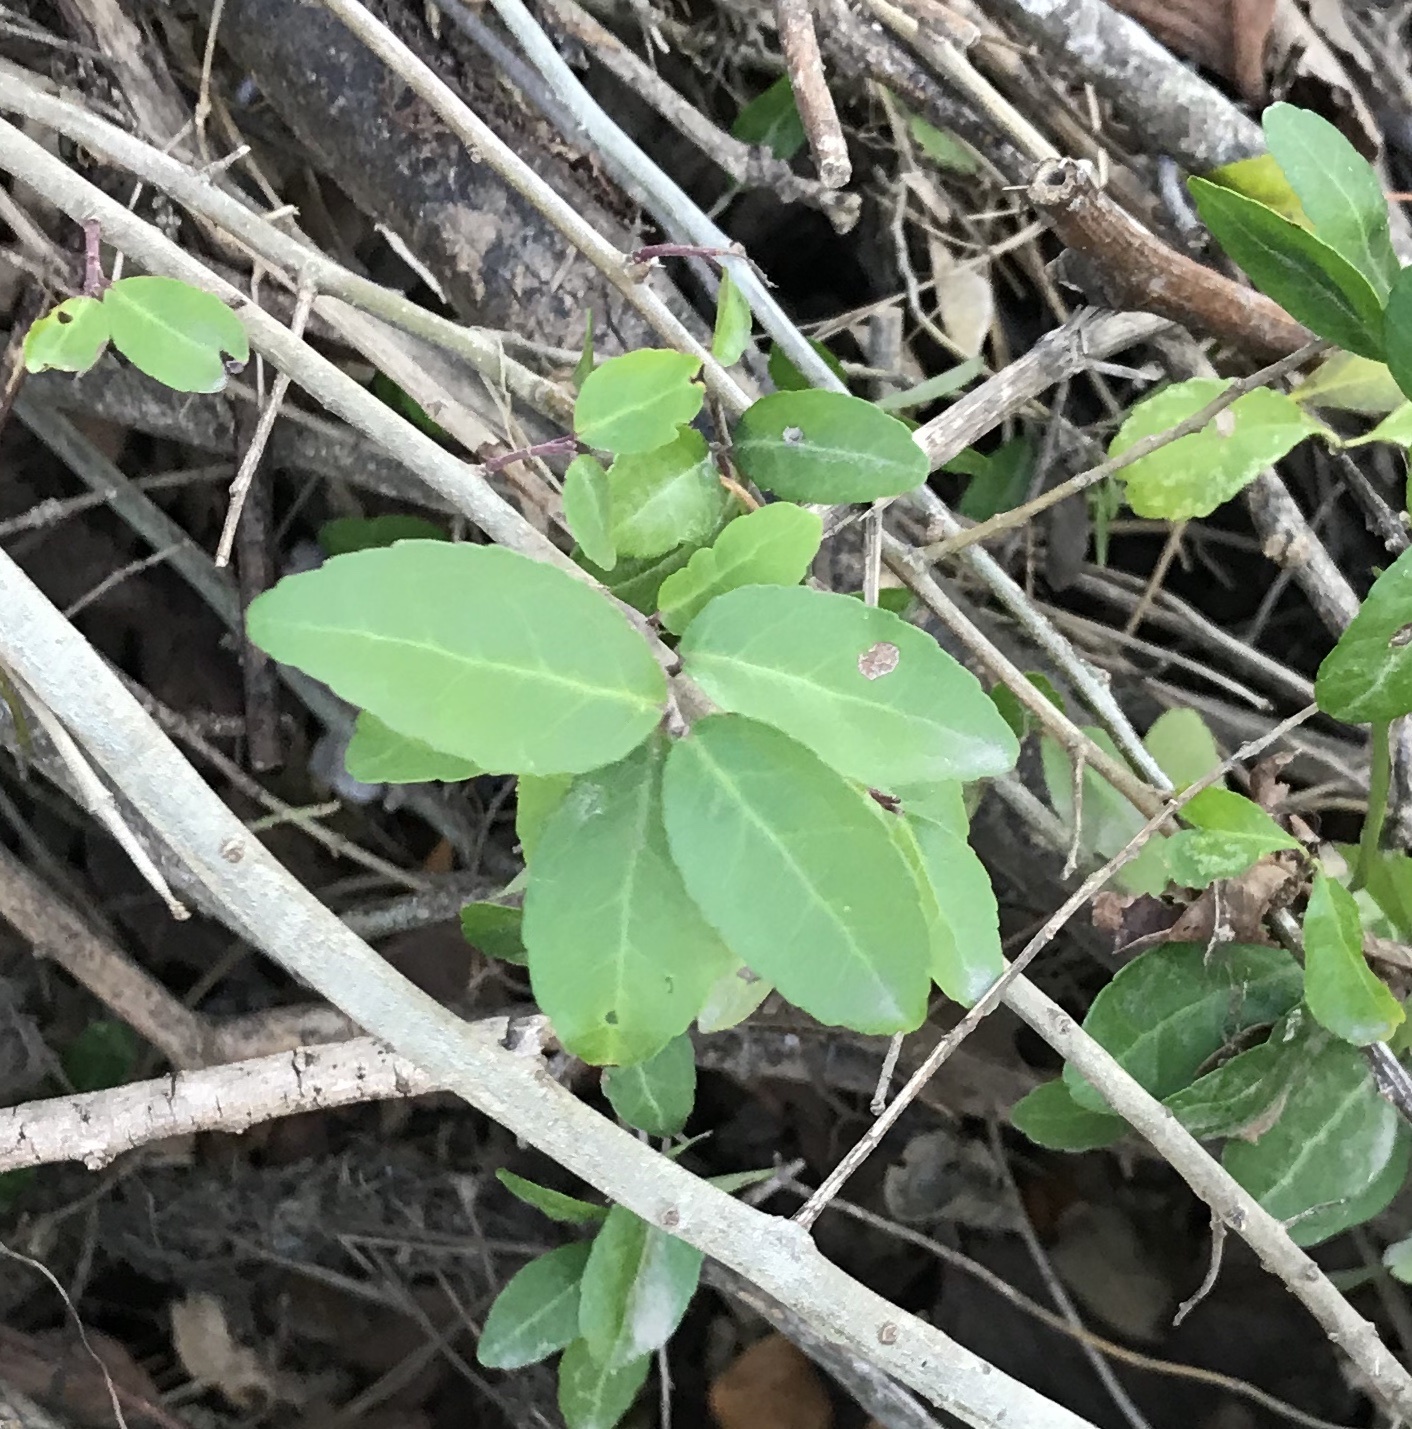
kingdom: Plantae
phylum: Tracheophyta
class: Magnoliopsida
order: Aquifoliales
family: Aquifoliaceae
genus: Ilex
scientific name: Ilex vomitoria
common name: Yaupon holly
